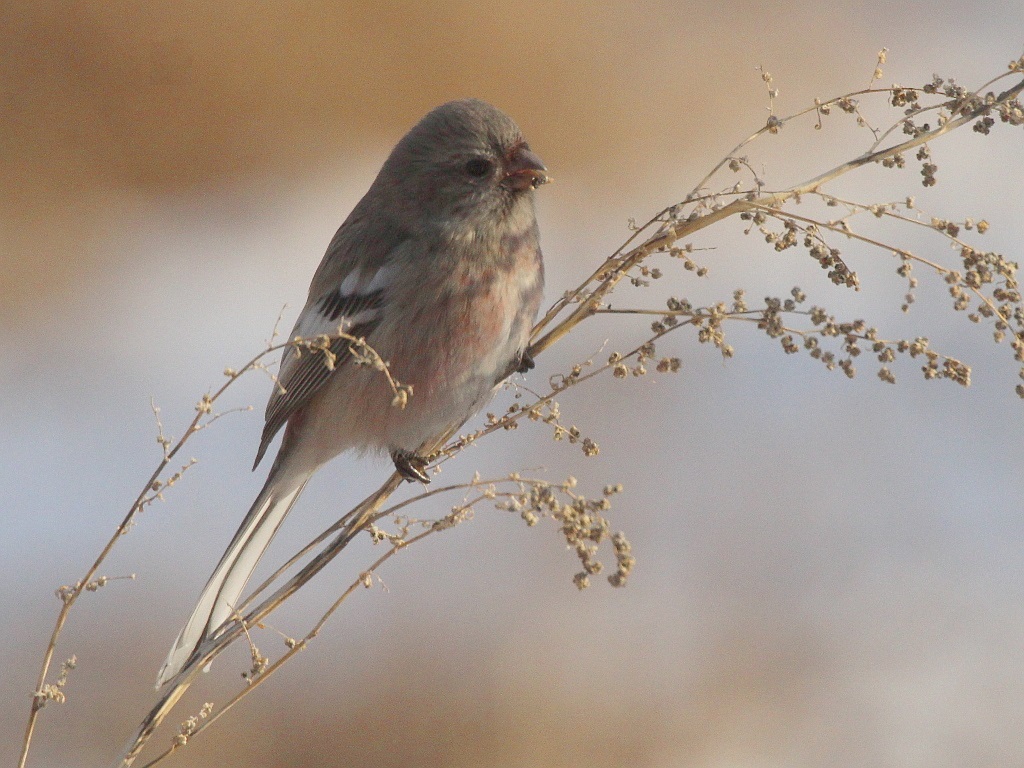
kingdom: Animalia
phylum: Chordata
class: Aves
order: Passeriformes
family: Fringillidae
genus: Carpodacus
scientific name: Carpodacus sibiricus
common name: Long-tailed rosefinch
